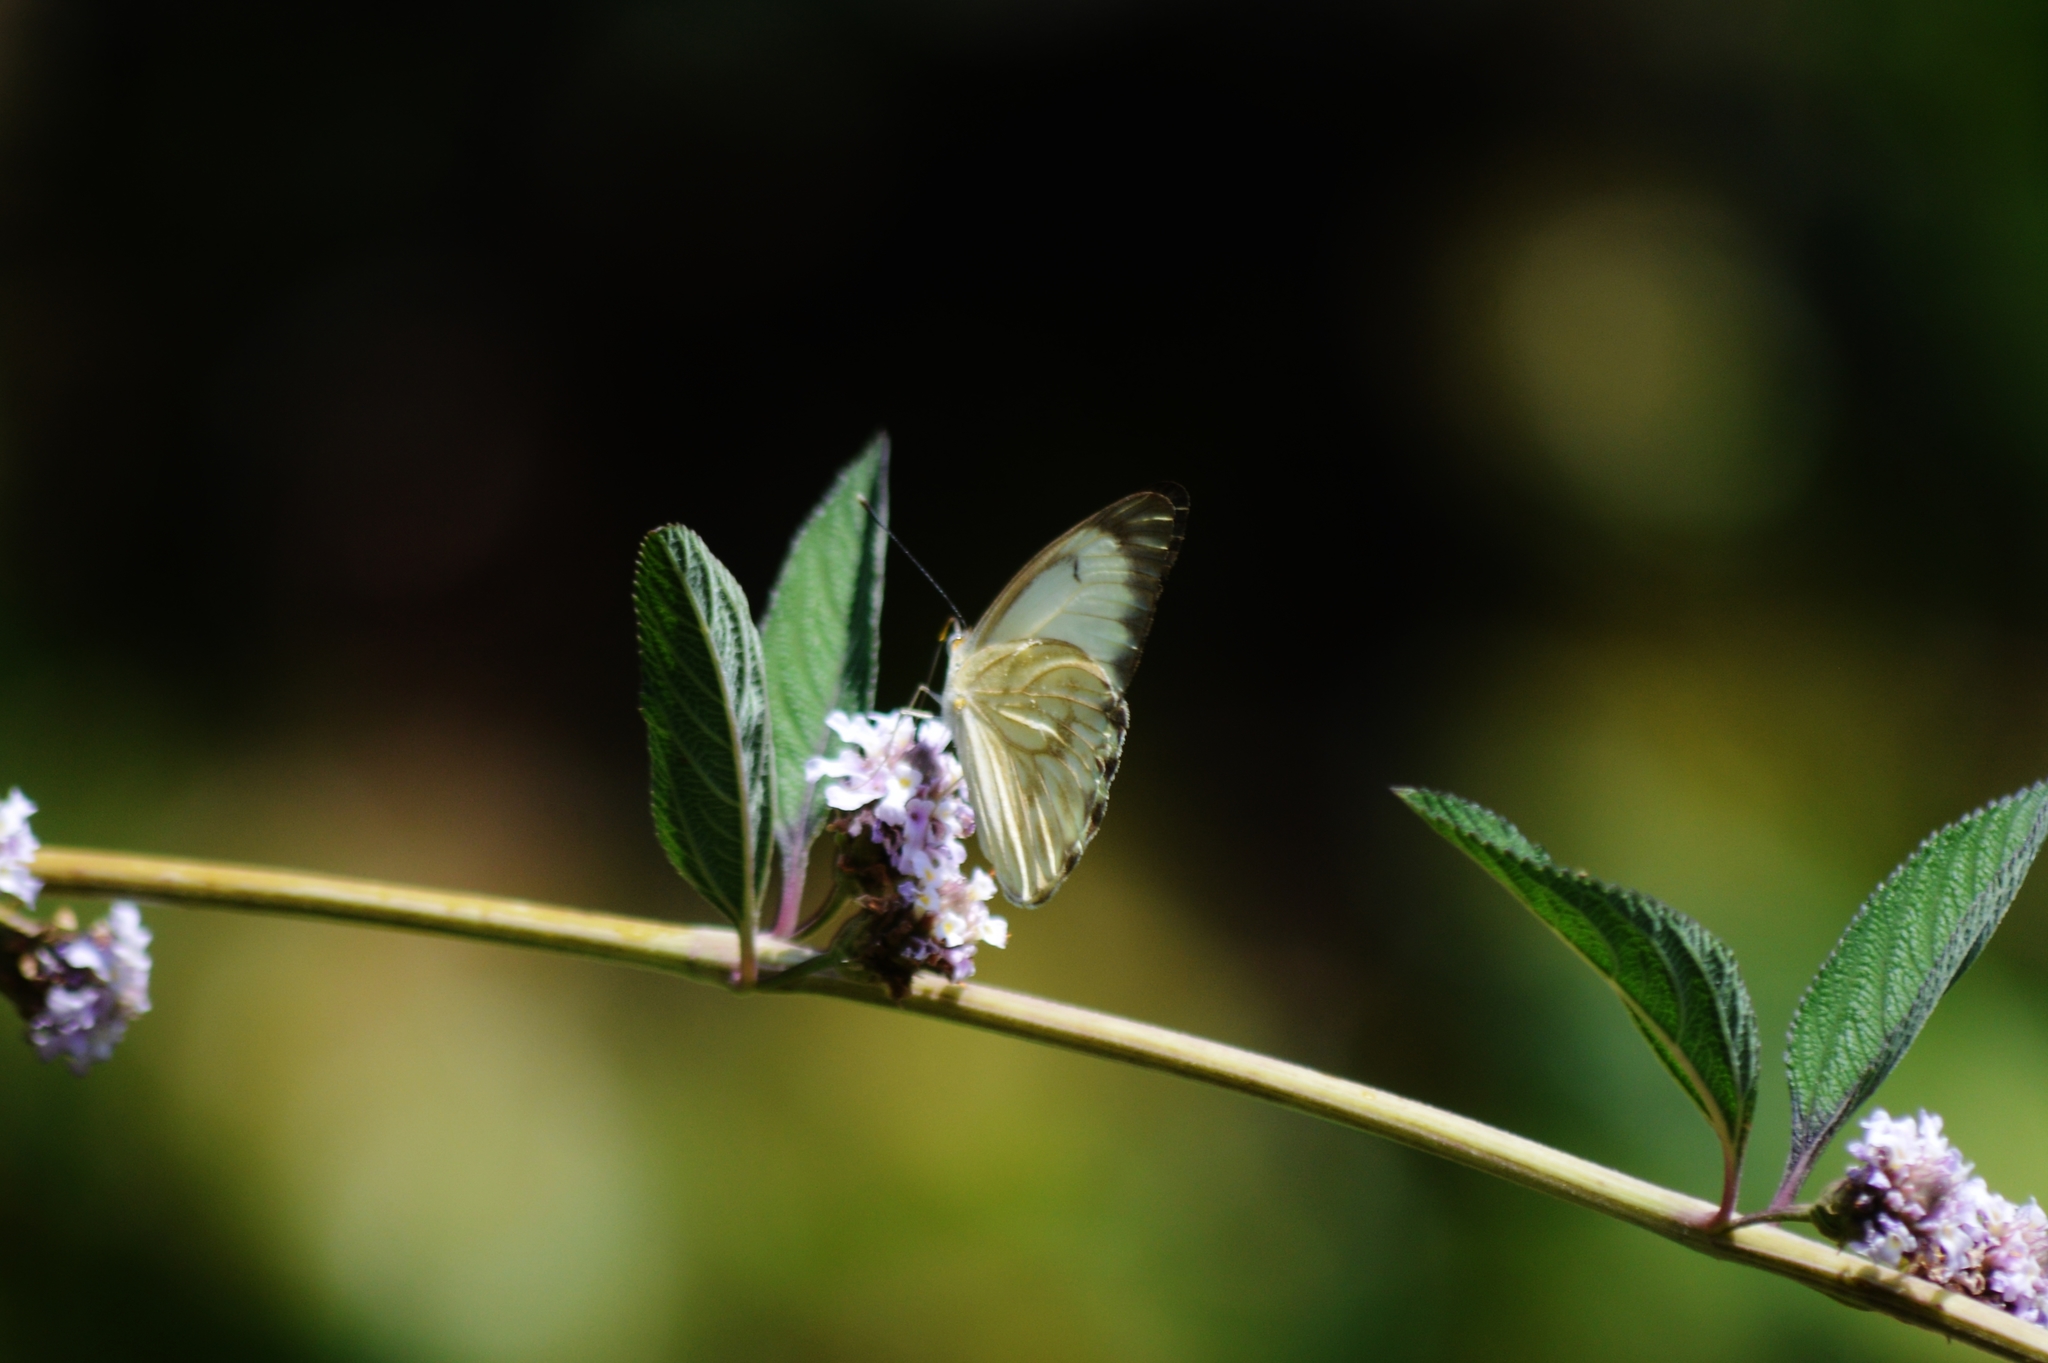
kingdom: Animalia
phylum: Arthropoda
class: Insecta
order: Lepidoptera
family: Pieridae
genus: Ascia
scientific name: Ascia monuste
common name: Great southern white
